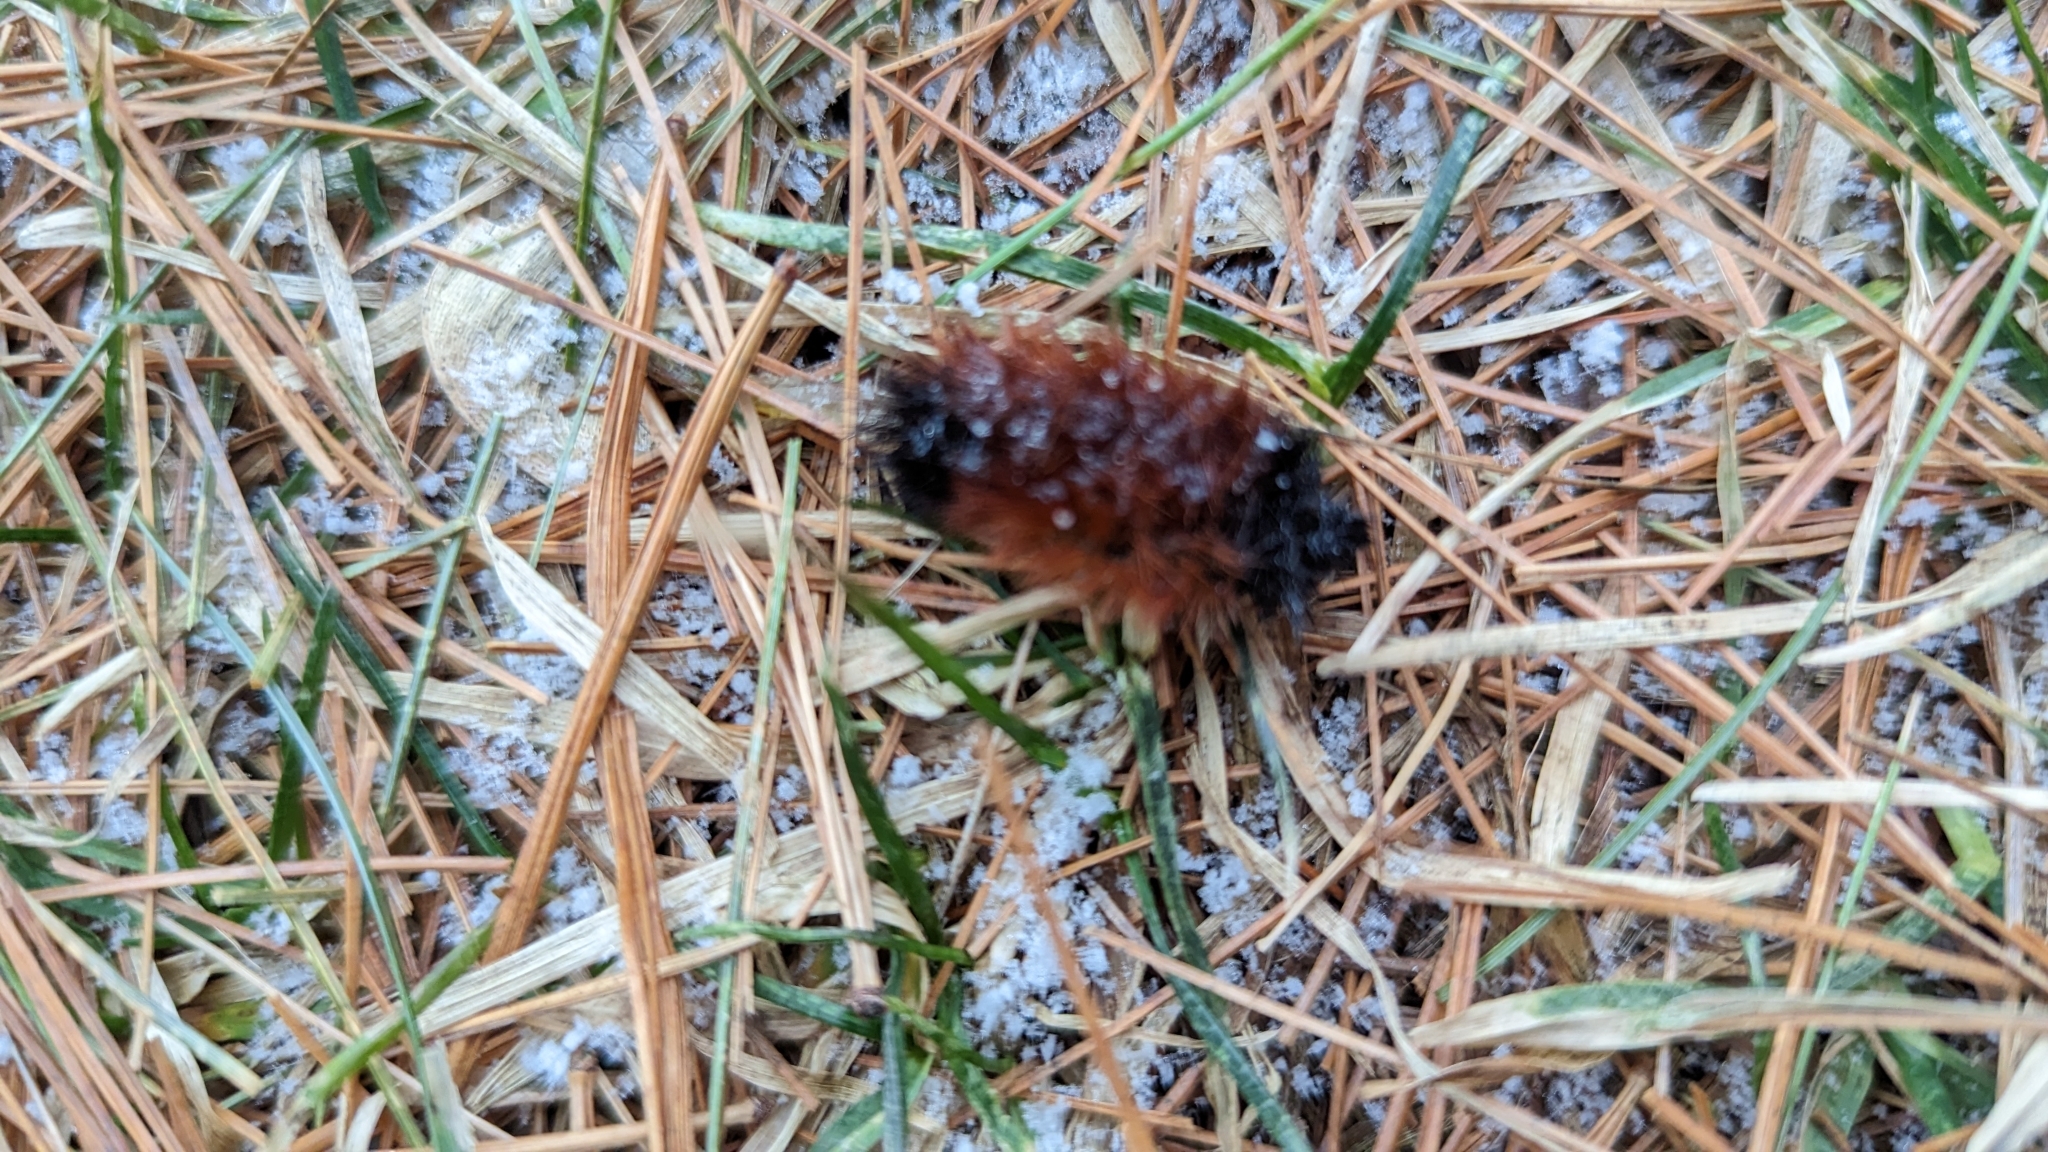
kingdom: Animalia
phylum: Arthropoda
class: Insecta
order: Lepidoptera
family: Erebidae
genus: Pyrrharctia
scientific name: Pyrrharctia isabella
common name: Isabella tiger moth
